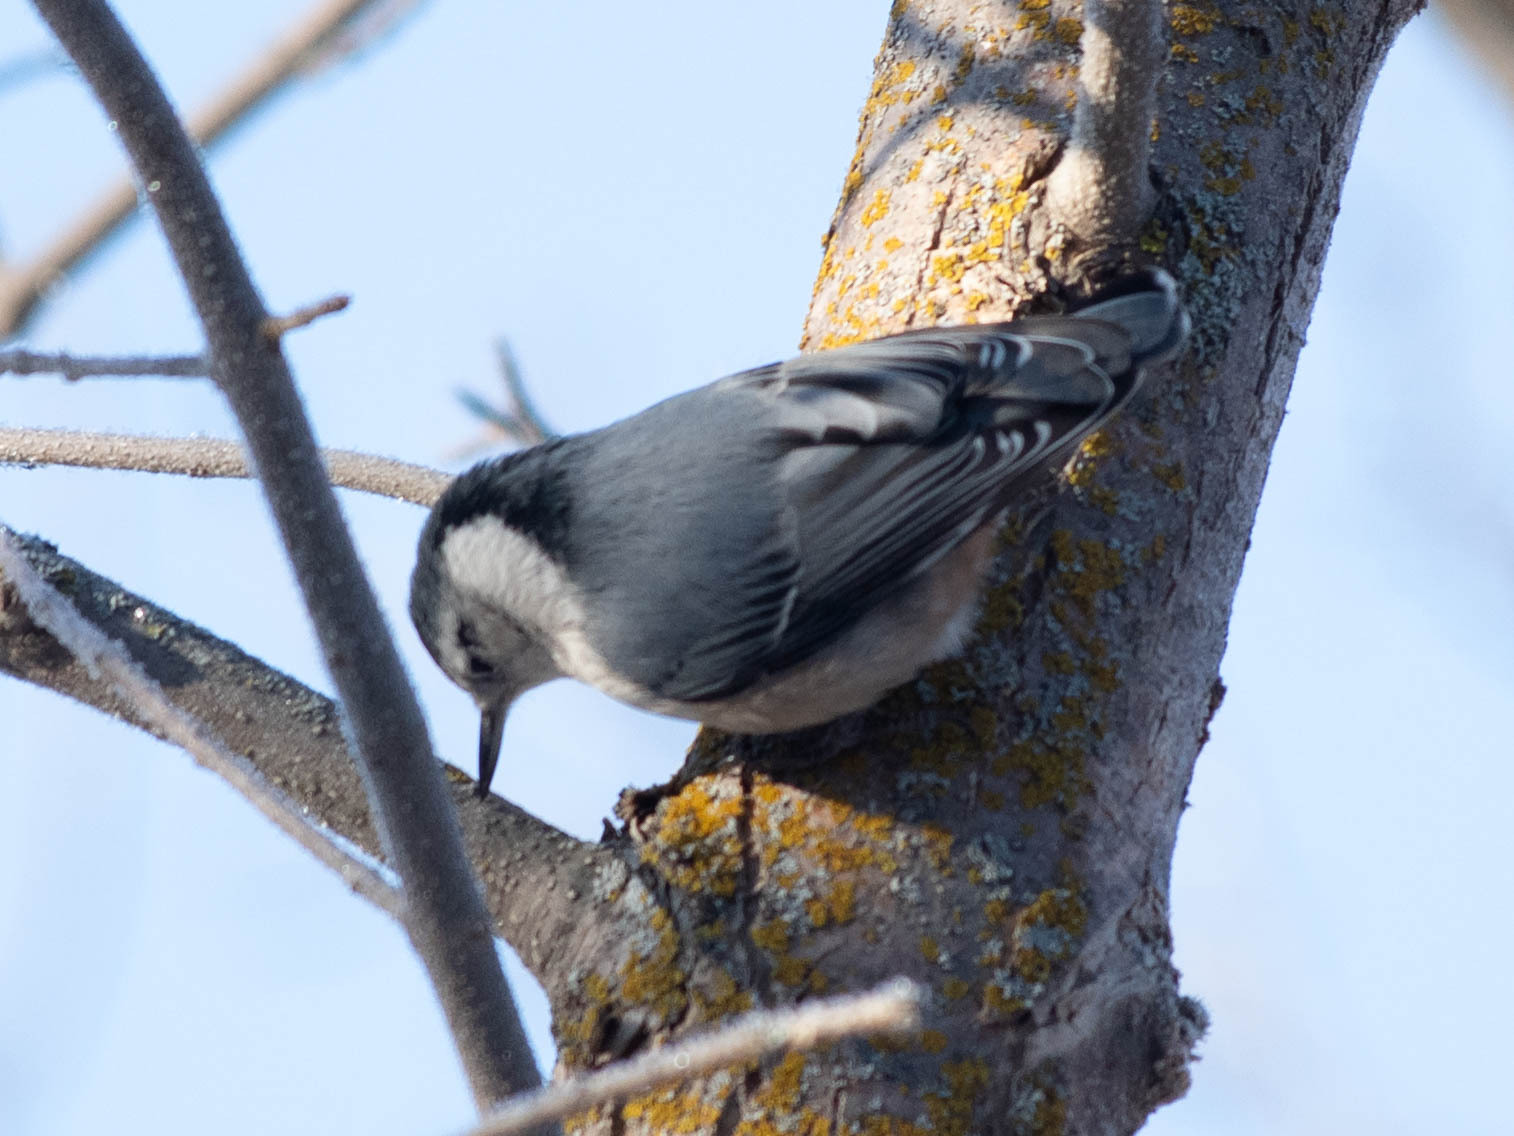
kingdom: Animalia
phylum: Chordata
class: Aves
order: Passeriformes
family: Sittidae
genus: Sitta
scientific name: Sitta carolinensis
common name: White-breasted nuthatch
